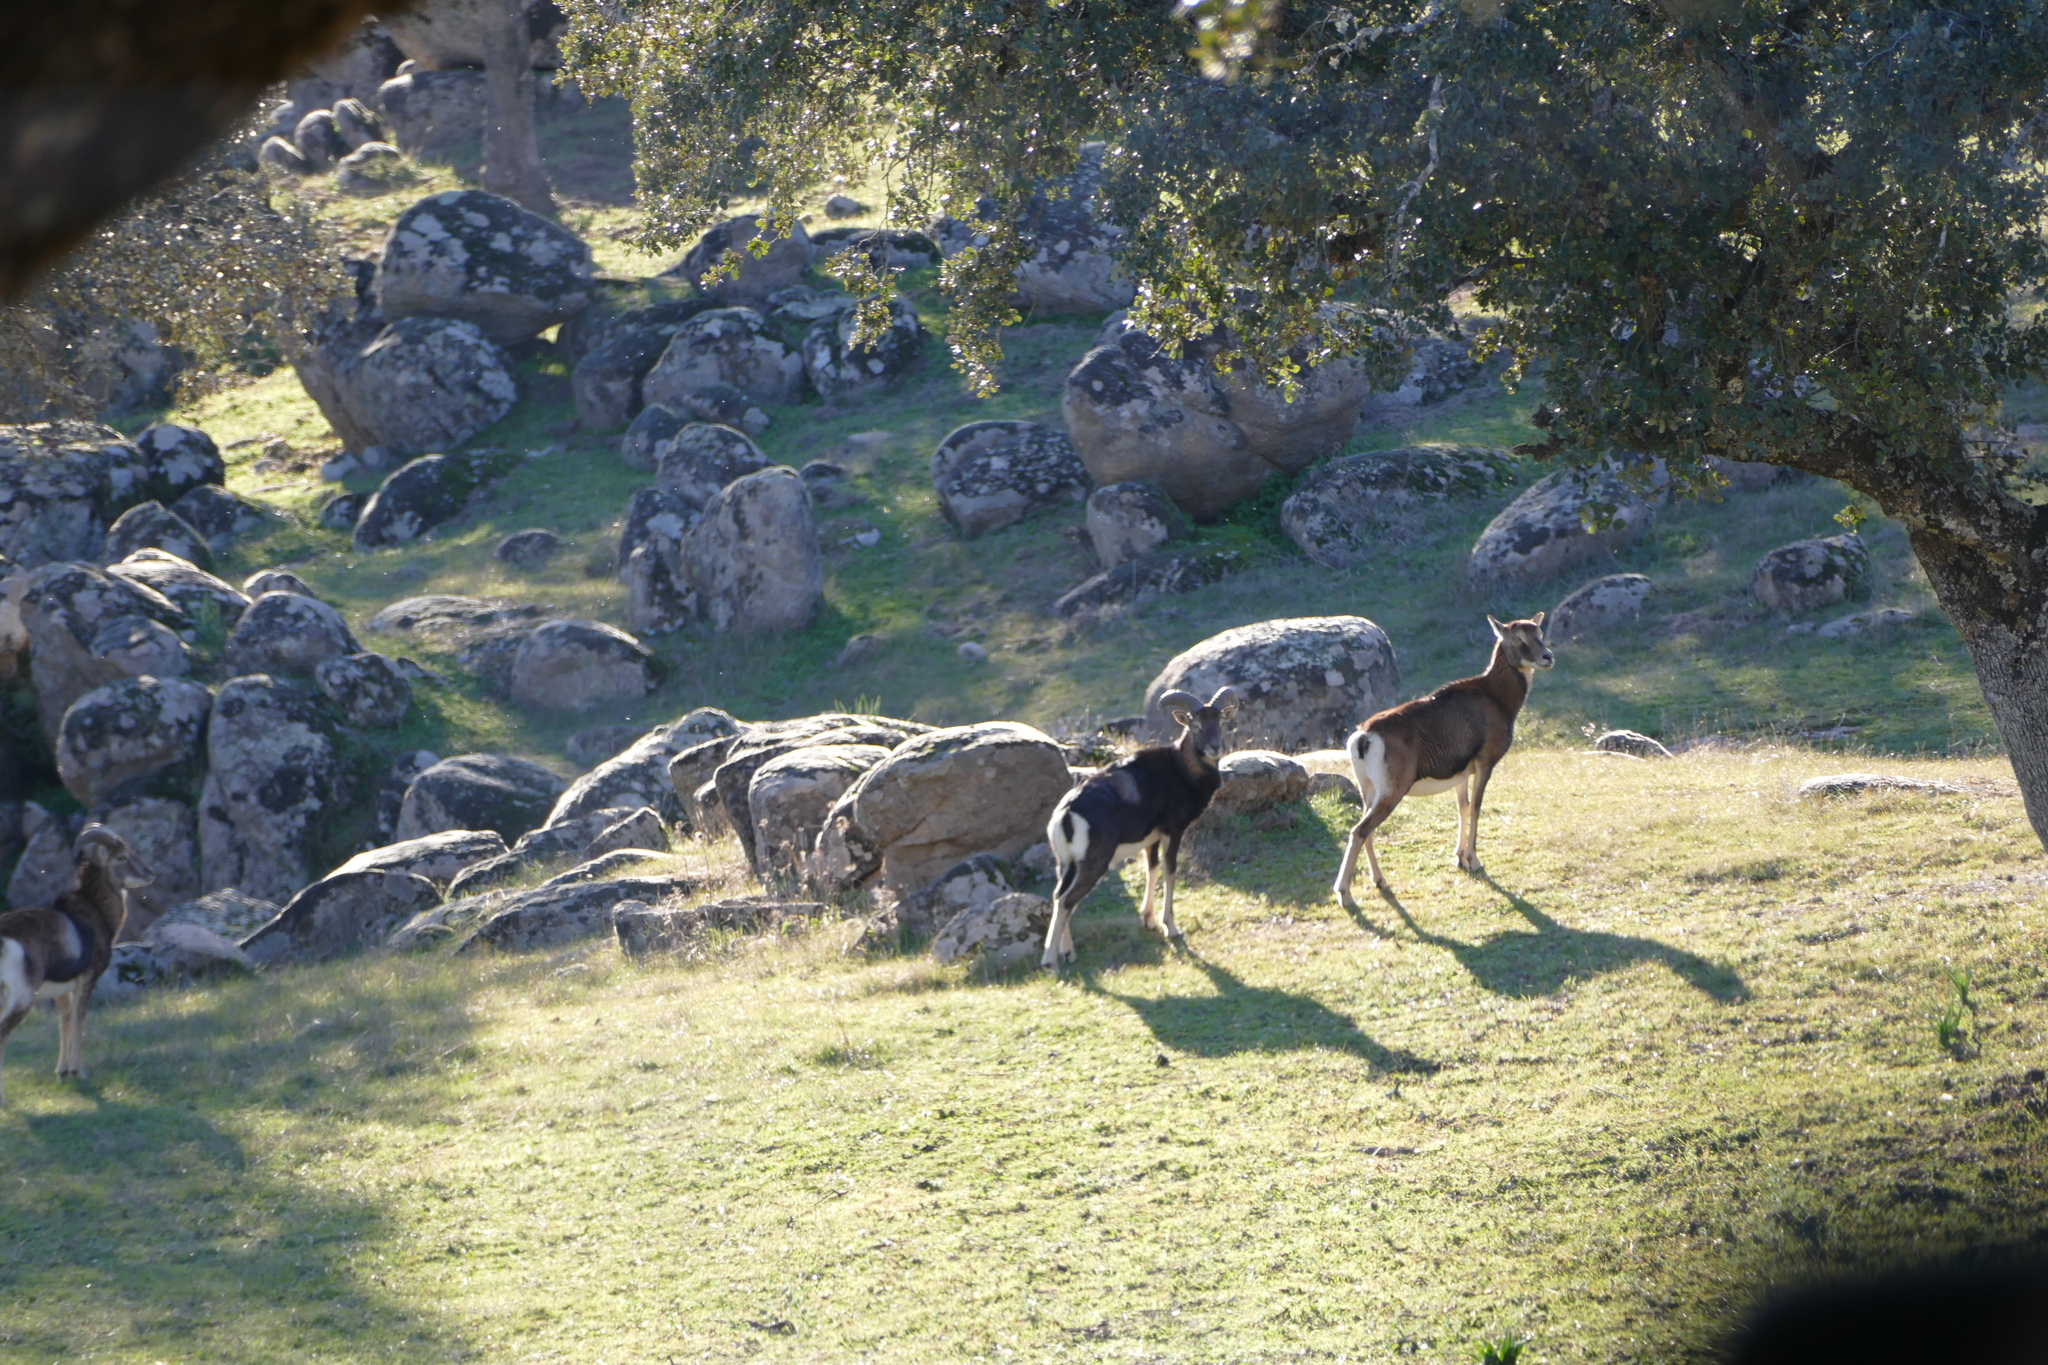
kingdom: Animalia
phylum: Chordata
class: Mammalia
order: Artiodactyla
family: Bovidae
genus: Ovis
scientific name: Ovis aries
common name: Domestic sheep
